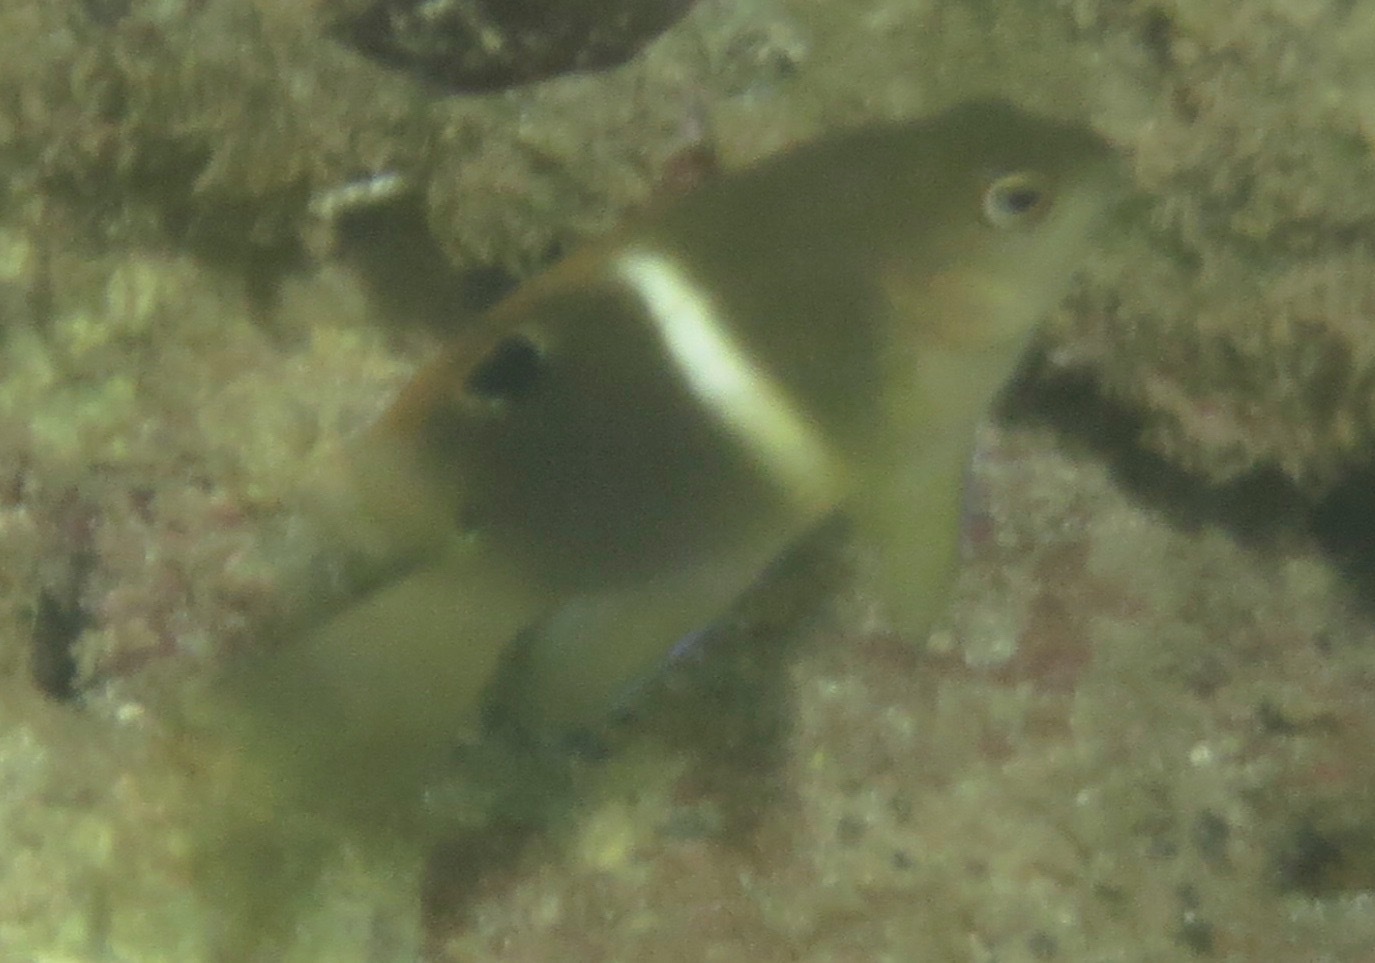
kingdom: Animalia
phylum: Chordata
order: Perciformes
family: Pomacentridae
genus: Chrysiptera
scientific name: Chrysiptera biocellata
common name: Twinspot damselfish
